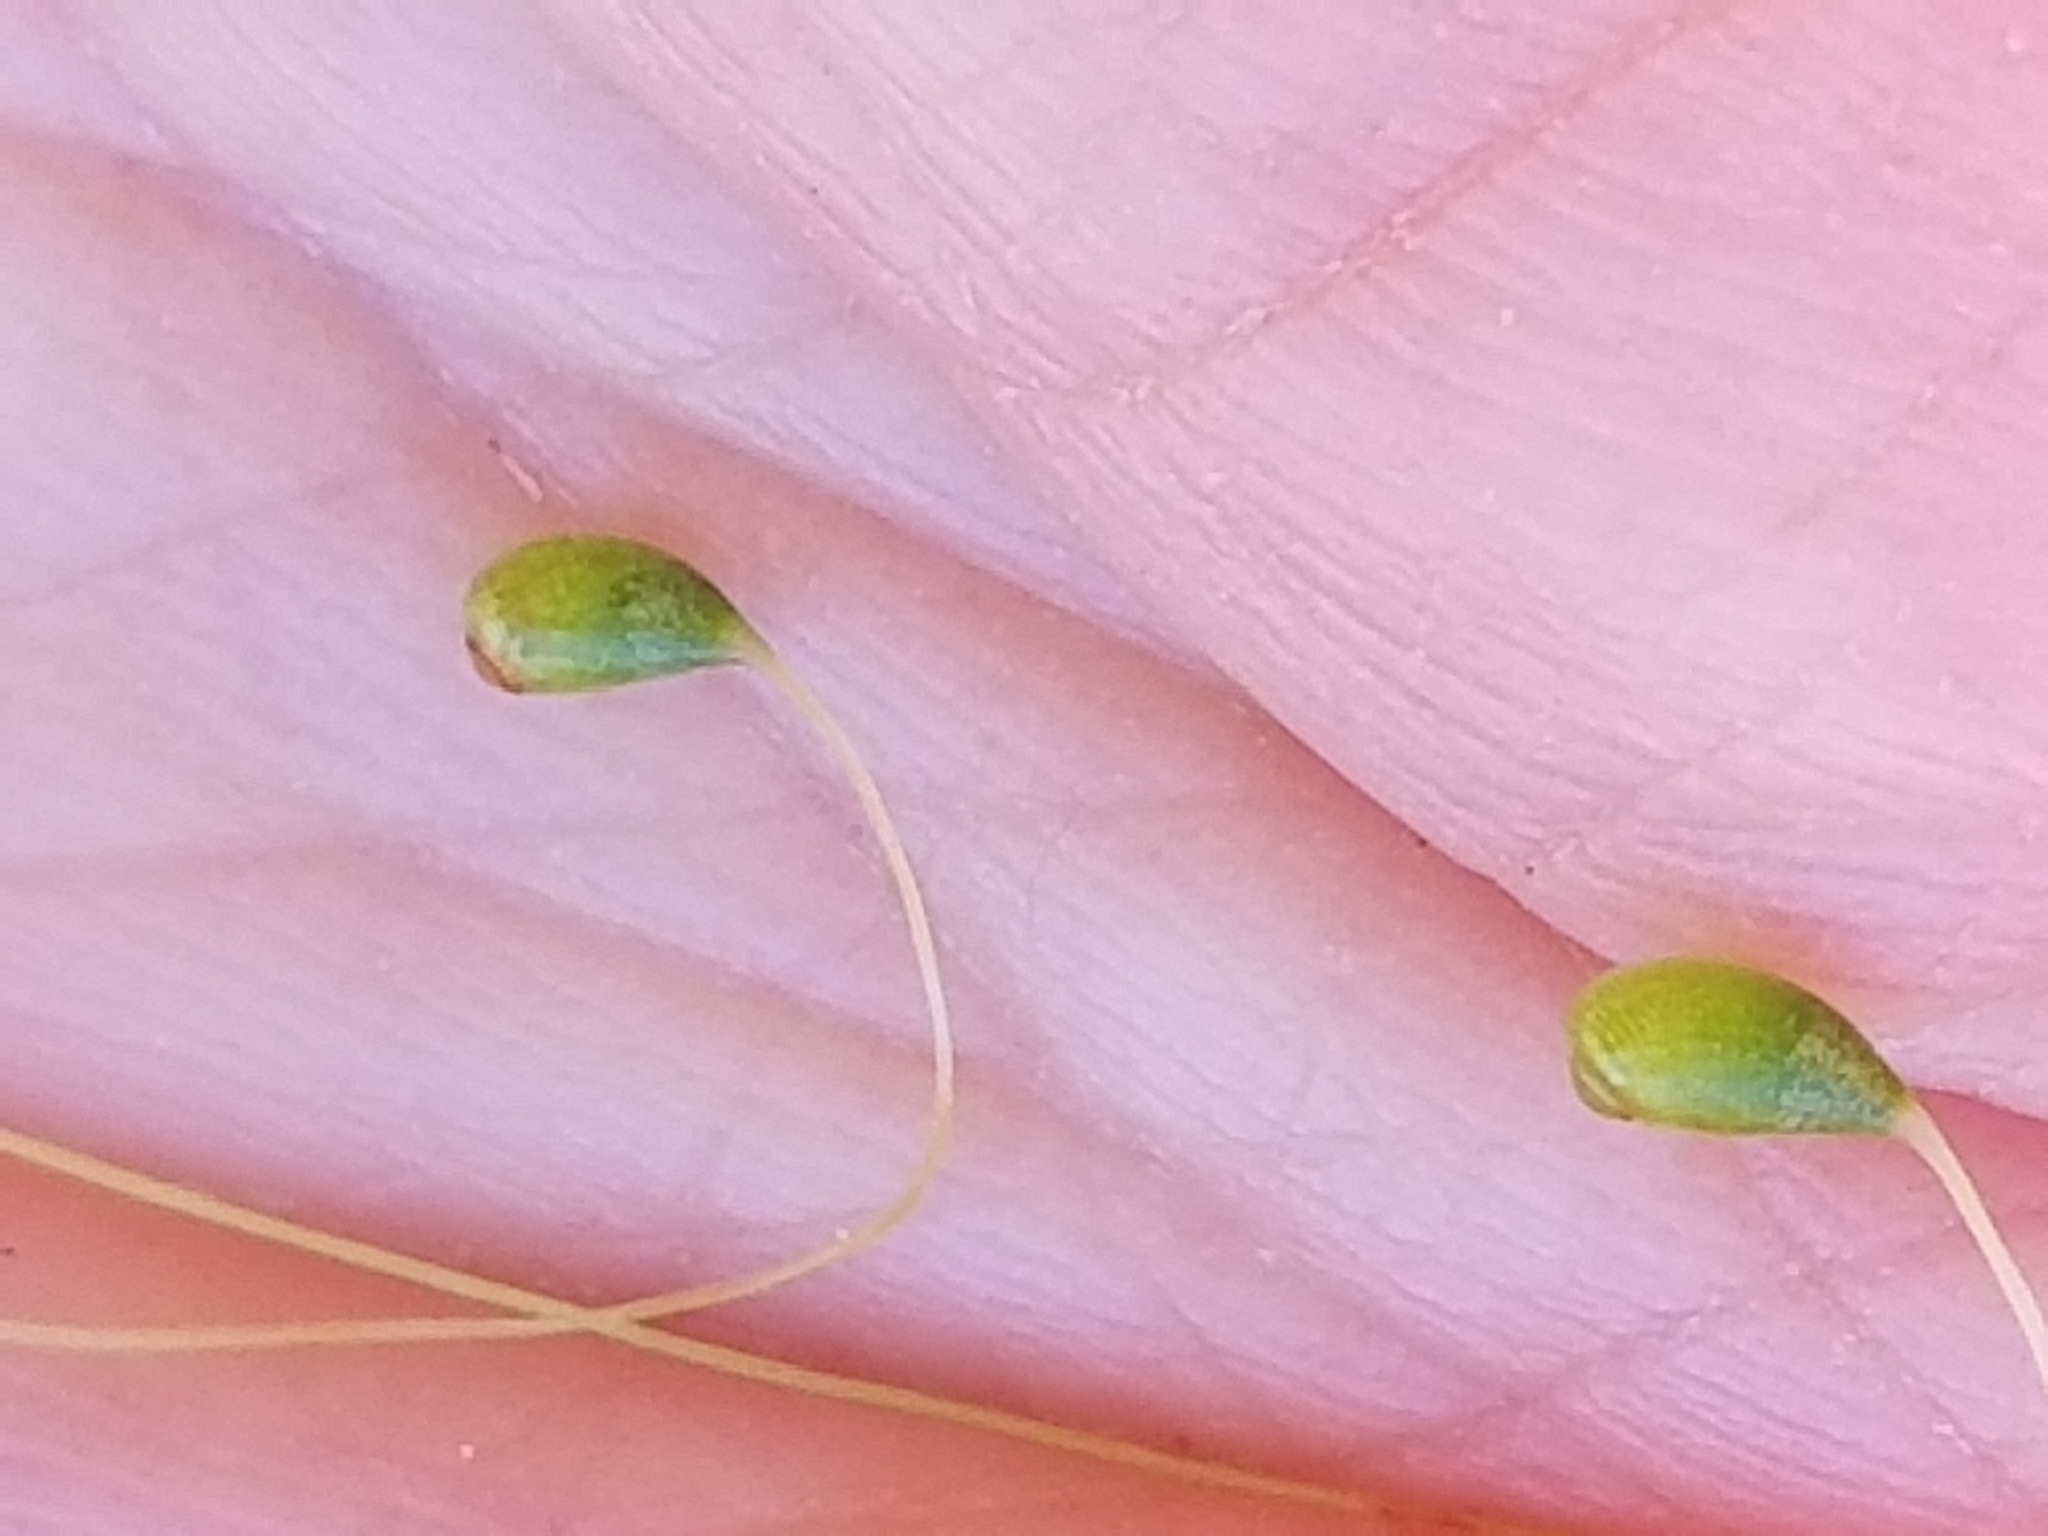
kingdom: Plantae
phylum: Bryophyta
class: Bryopsida
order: Funariales
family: Funariaceae
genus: Funaria
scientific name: Funaria hygrometrica
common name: Common cord moss
